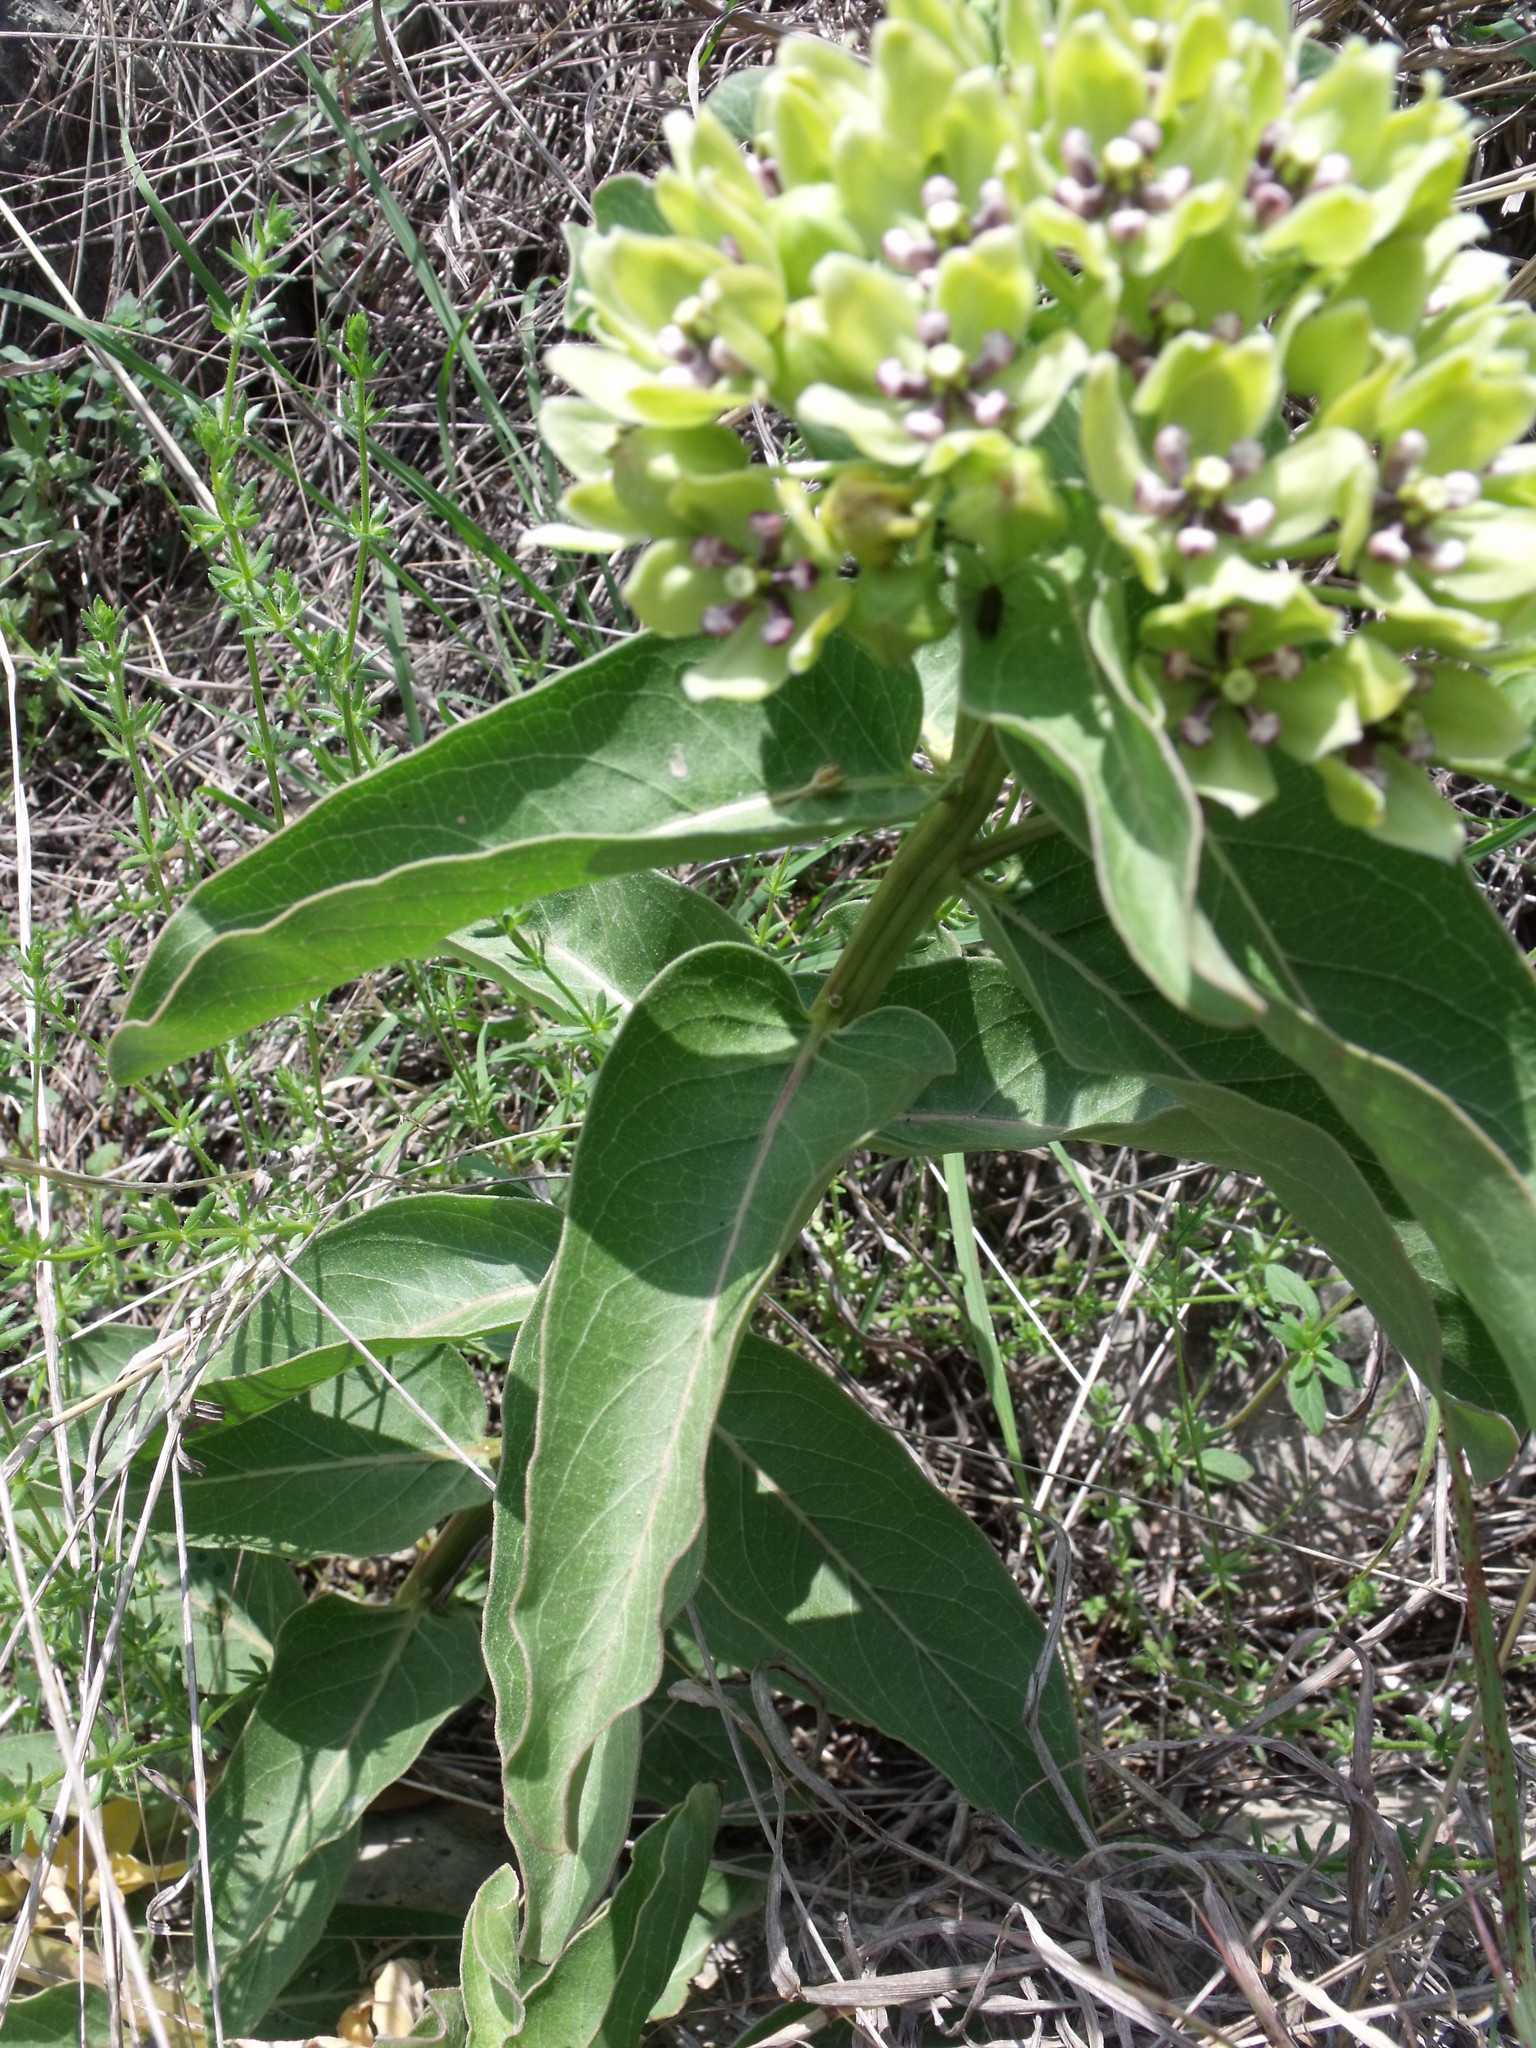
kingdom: Plantae
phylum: Tracheophyta
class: Magnoliopsida
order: Gentianales
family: Apocynaceae
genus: Asclepias
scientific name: Asclepias viridis
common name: Antelope-horns
